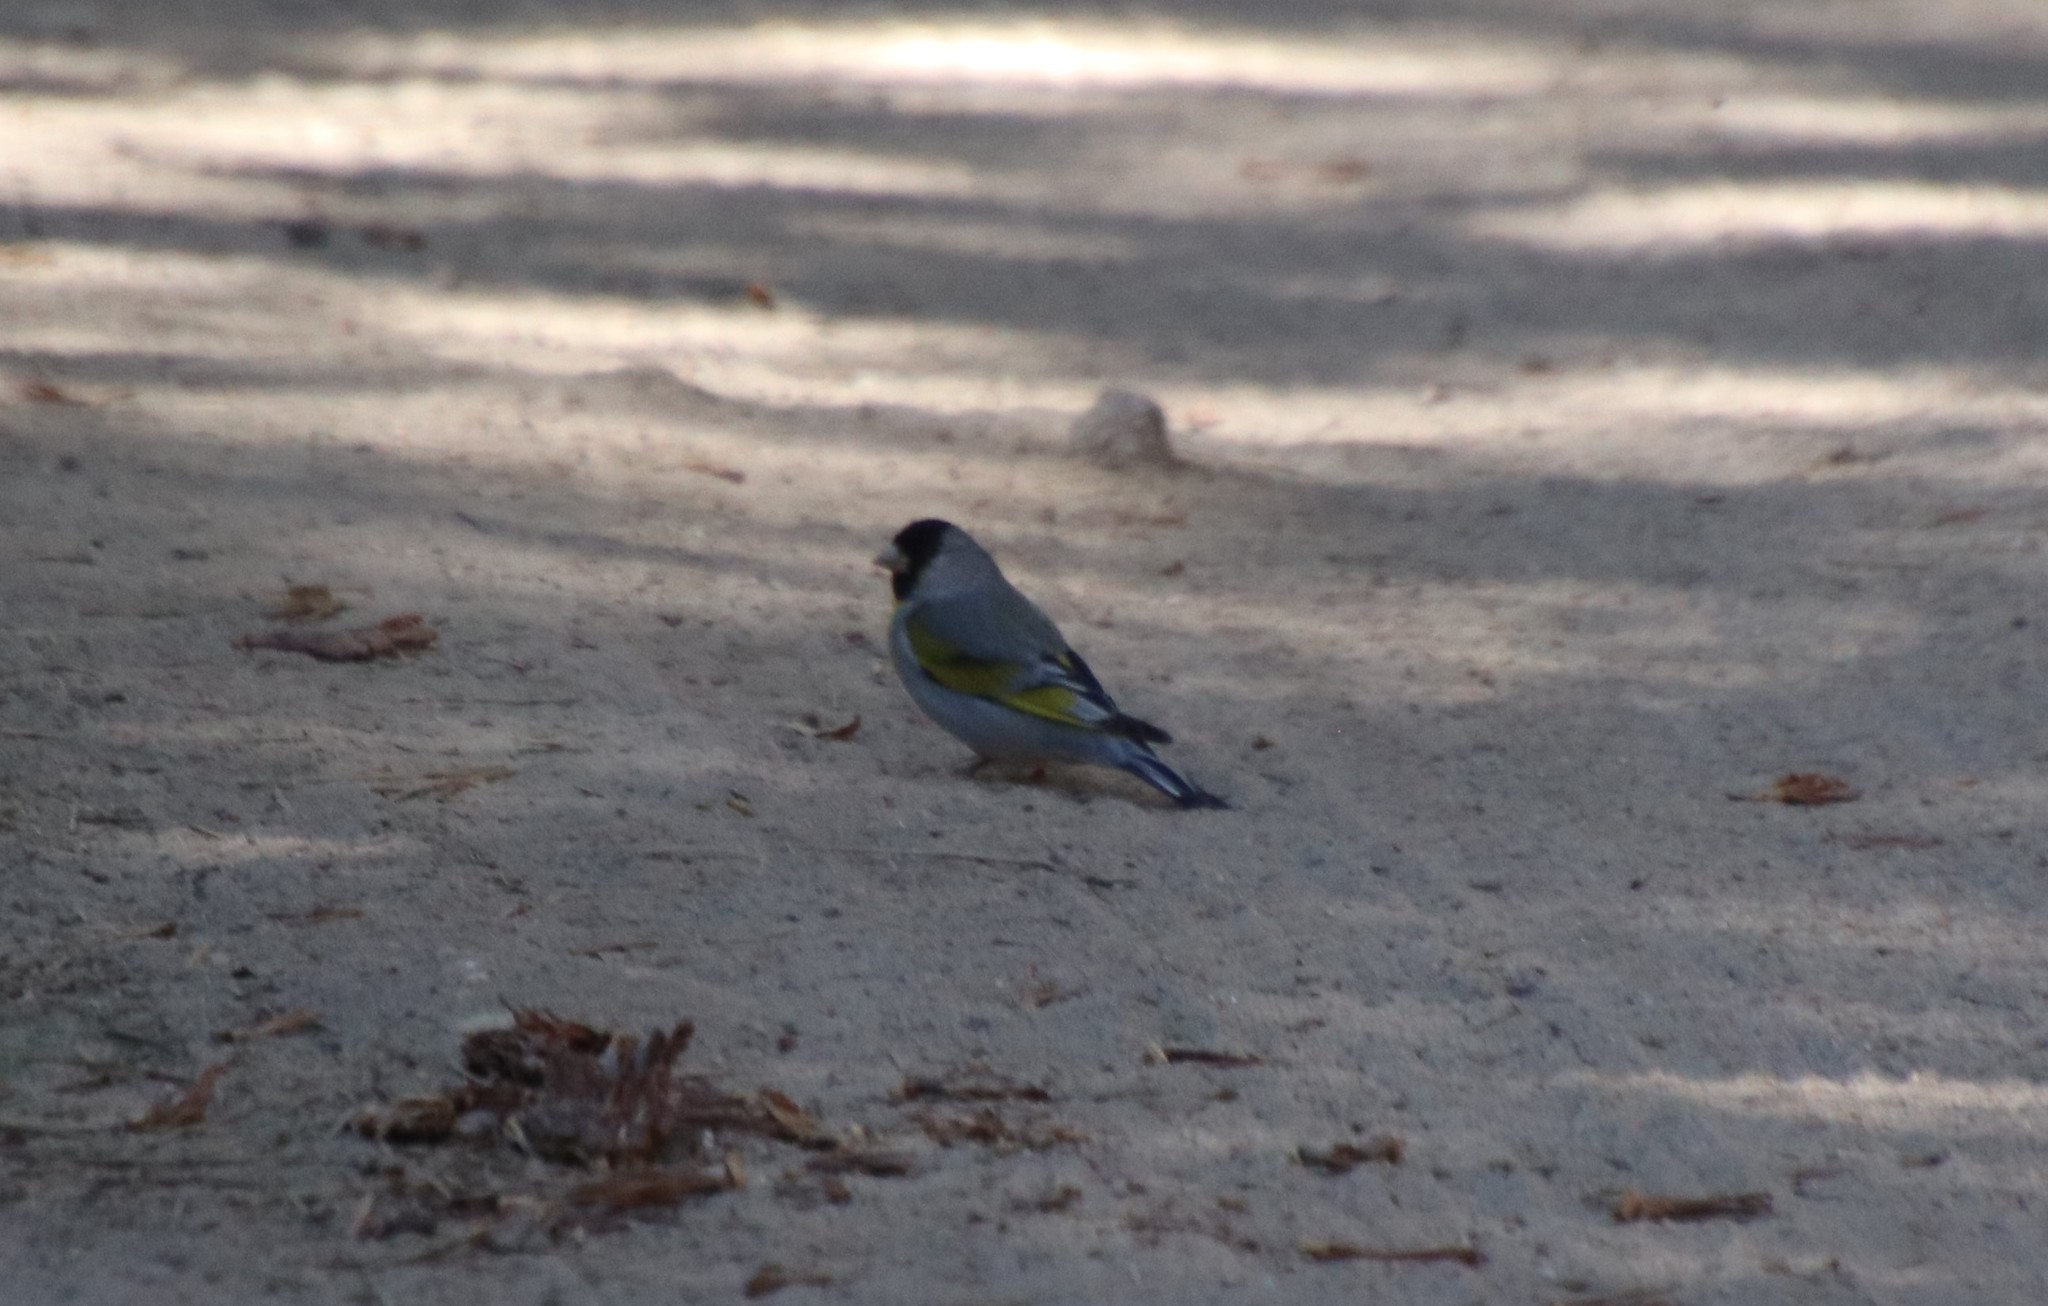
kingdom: Animalia
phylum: Chordata
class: Aves
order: Passeriformes
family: Fringillidae
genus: Spinus
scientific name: Spinus lawrencei
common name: Lawrence's goldfinch
